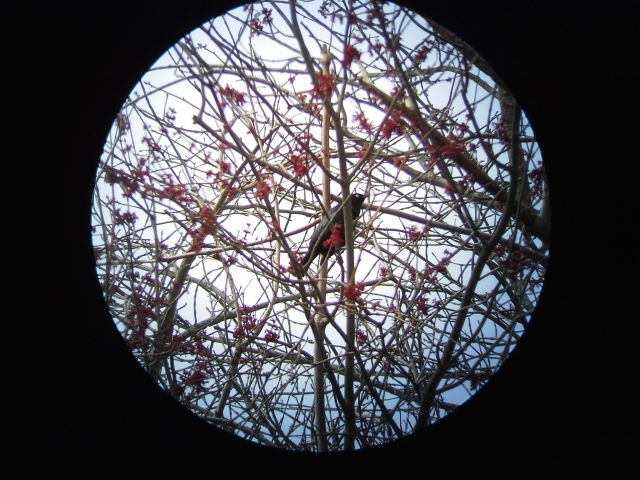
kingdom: Animalia
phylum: Chordata
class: Aves
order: Passeriformes
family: Icteridae
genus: Euphagus
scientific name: Euphagus carolinus
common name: Rusty blackbird
